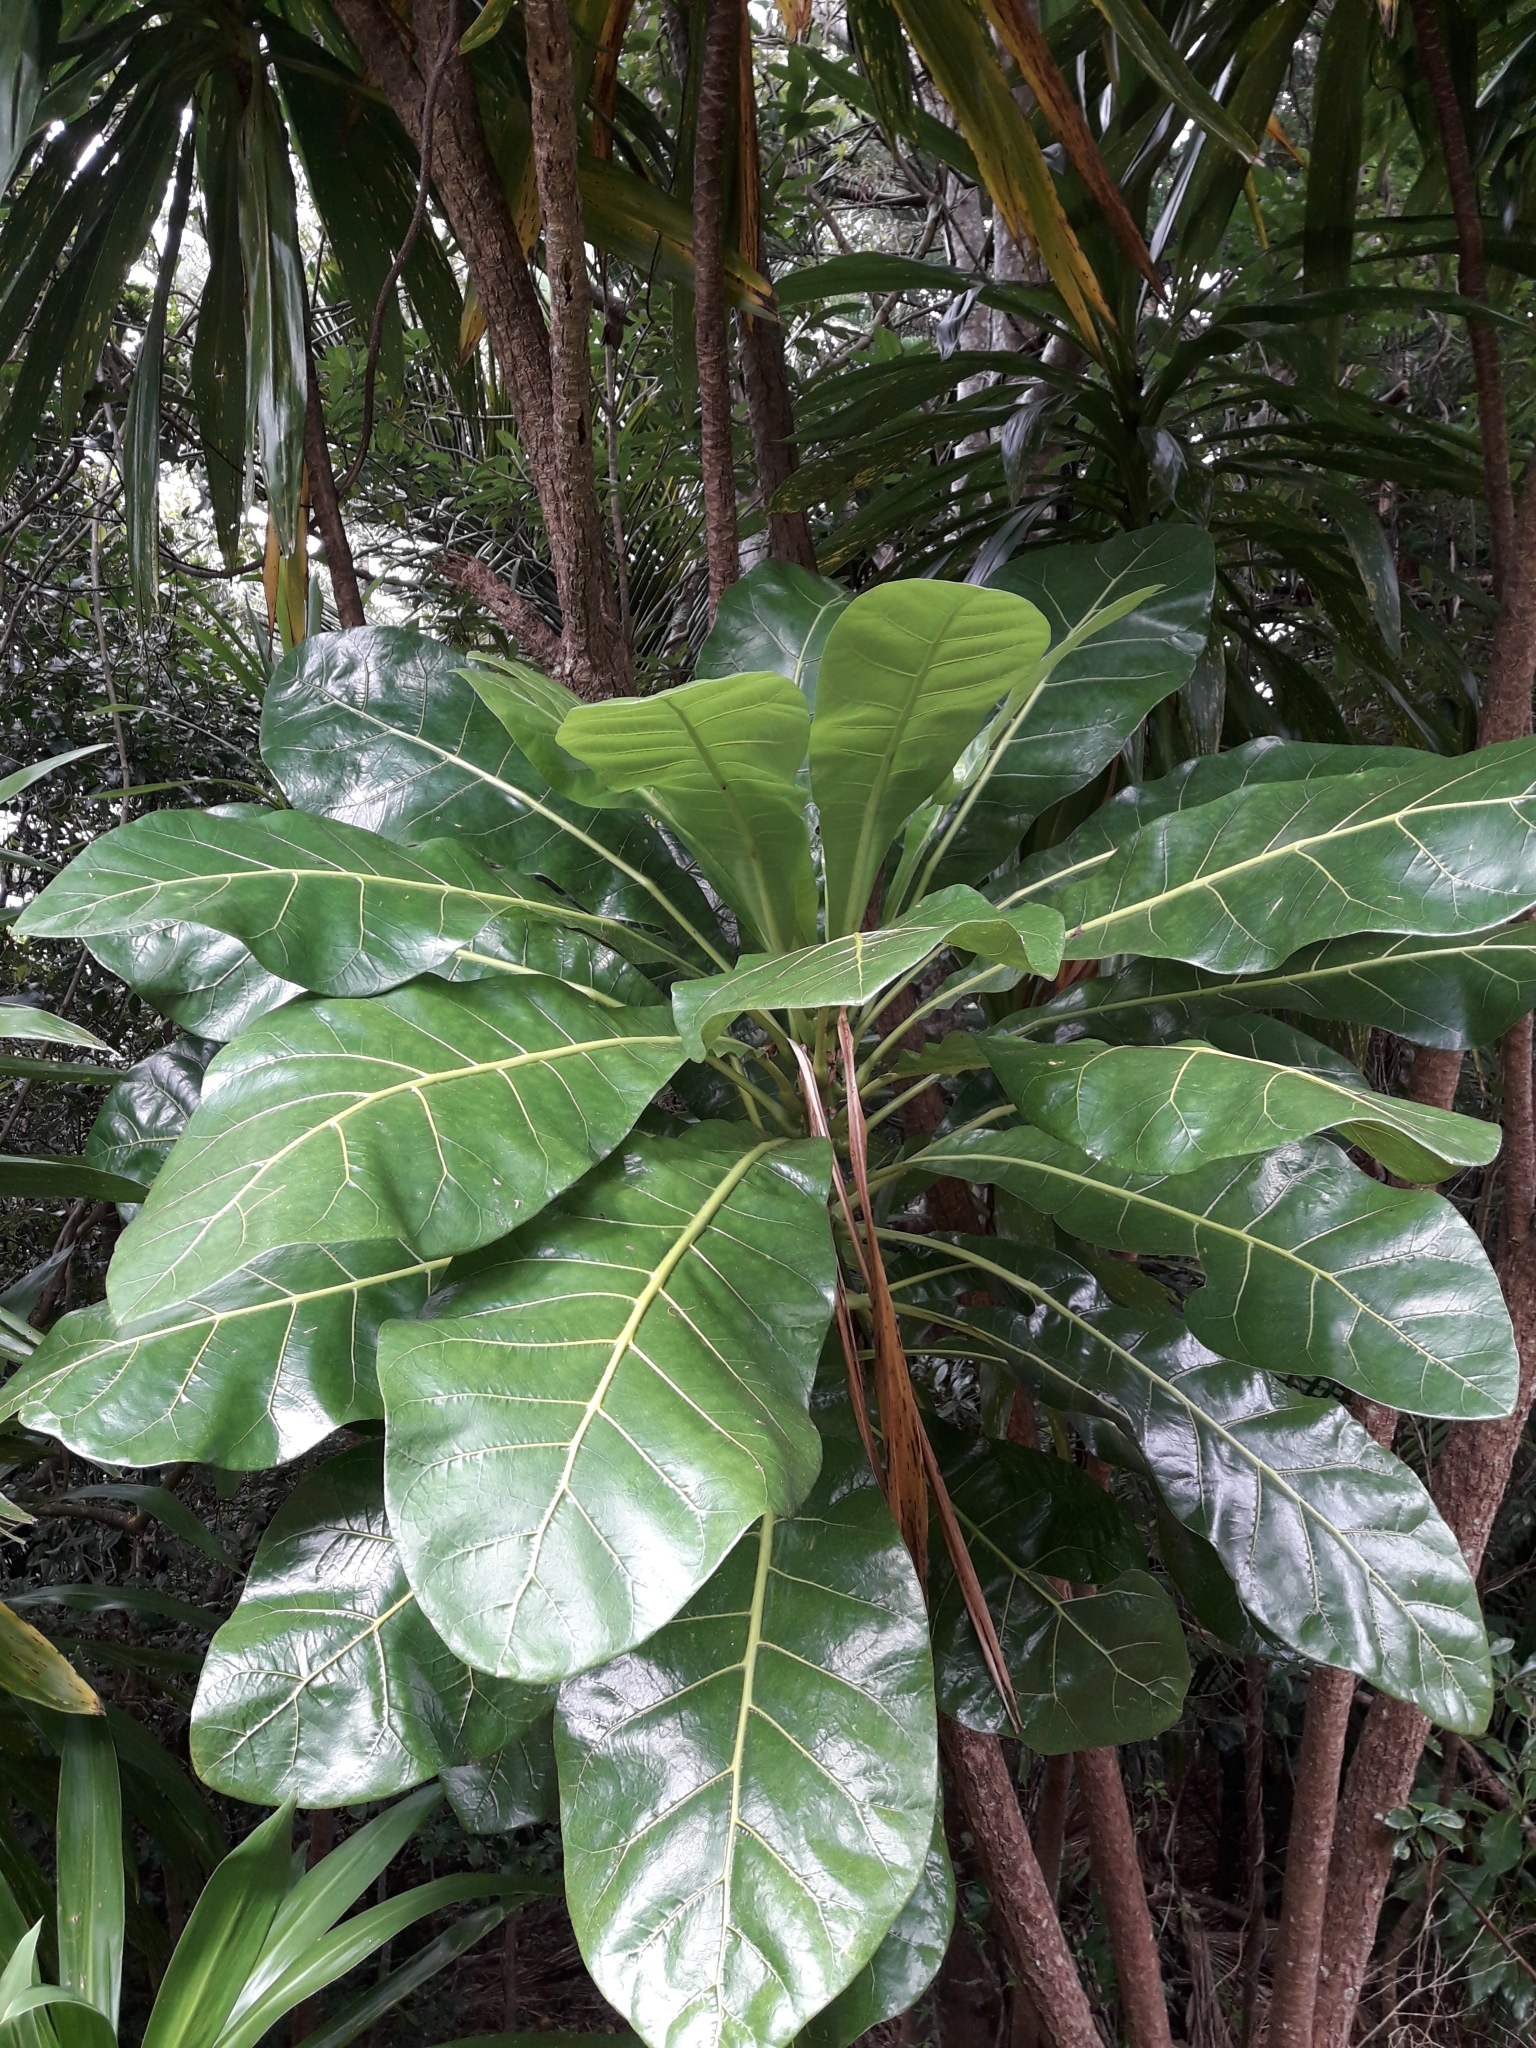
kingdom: Plantae
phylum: Tracheophyta
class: Magnoliopsida
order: Apiales
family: Araliaceae
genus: Meryta
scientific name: Meryta latifolia
